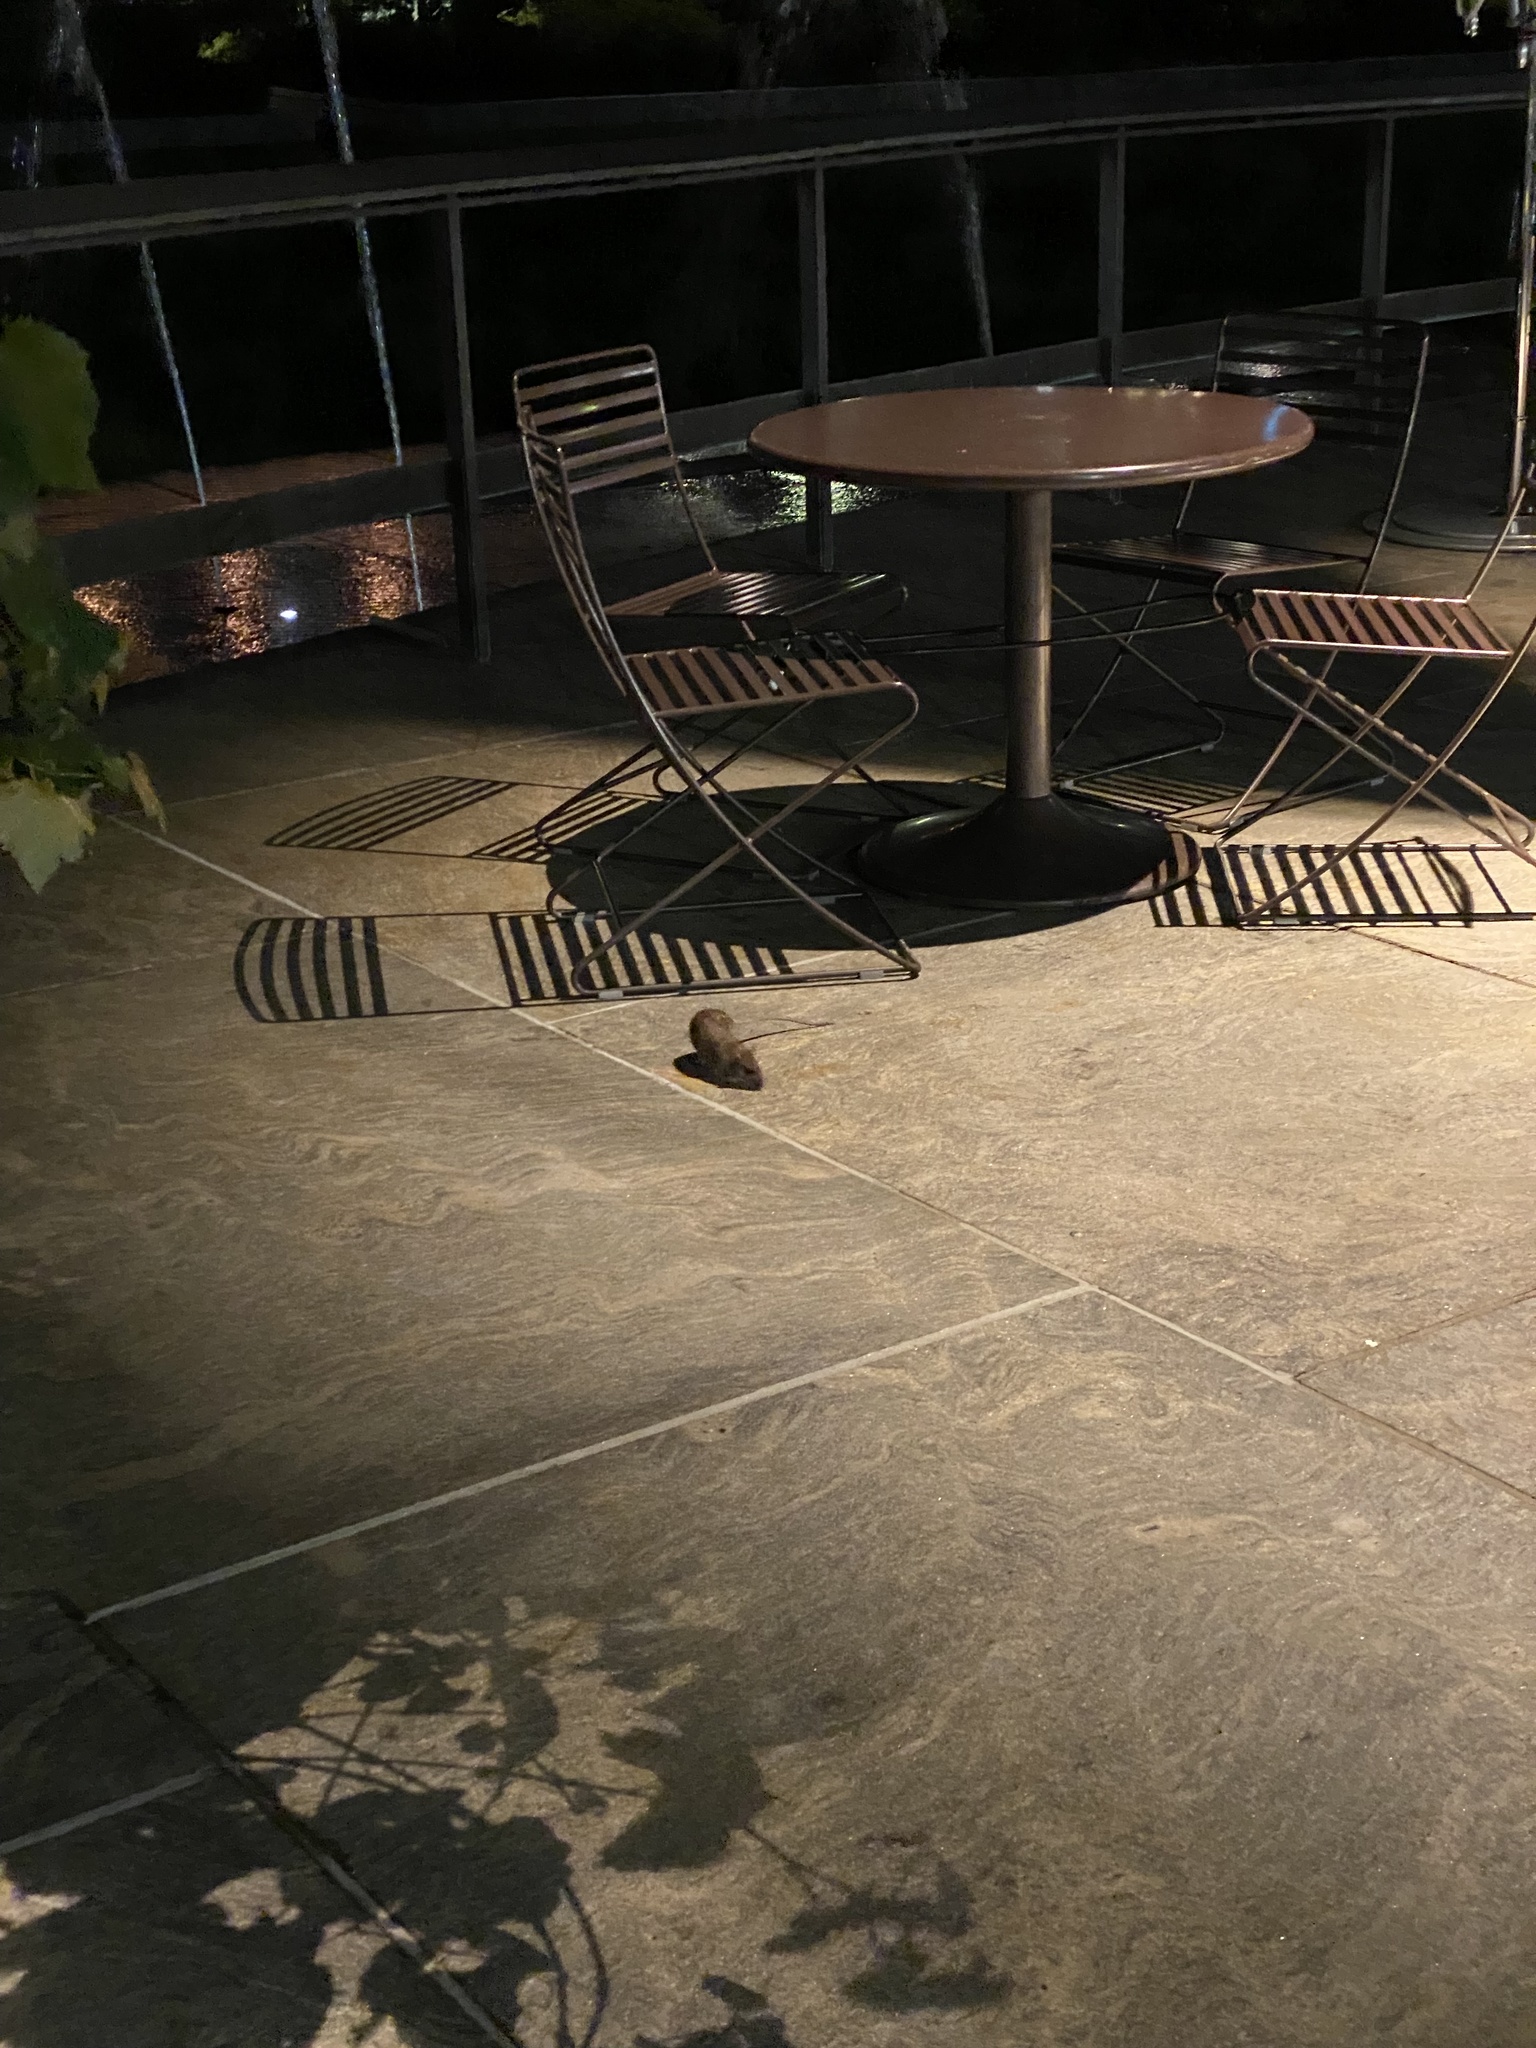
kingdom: Animalia
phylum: Chordata
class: Mammalia
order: Rodentia
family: Muridae
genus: Rattus
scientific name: Rattus norvegicus
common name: Brown rat
